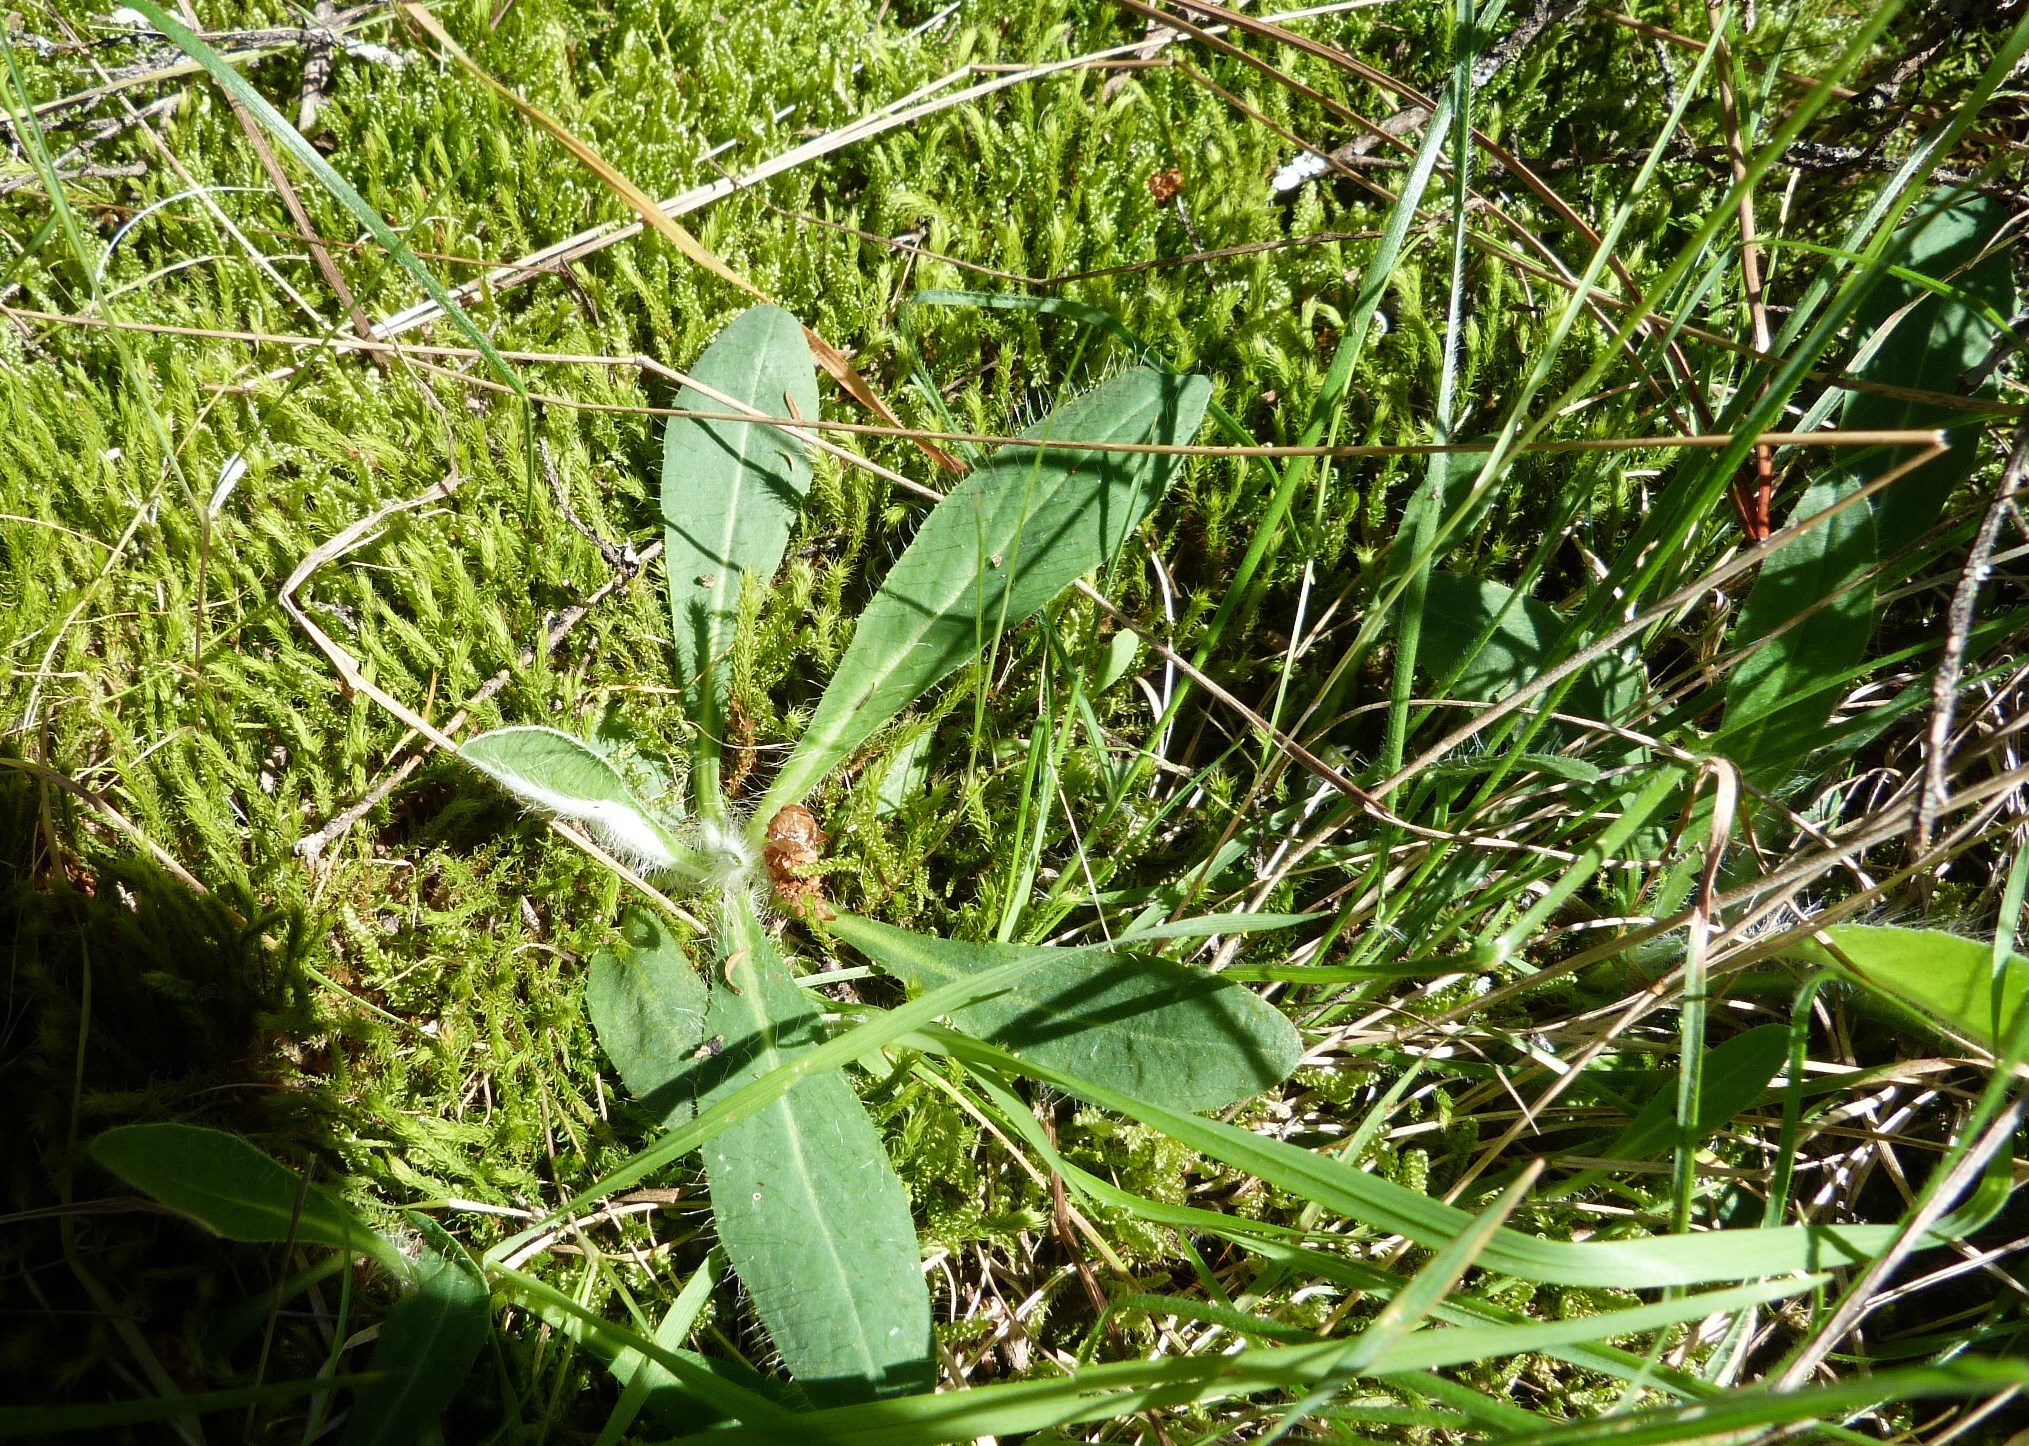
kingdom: Plantae
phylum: Tracheophyta
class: Magnoliopsida
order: Asterales
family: Asteraceae
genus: Pilosella
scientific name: Pilosella officinarum
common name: Mouse-ear hawkweed
